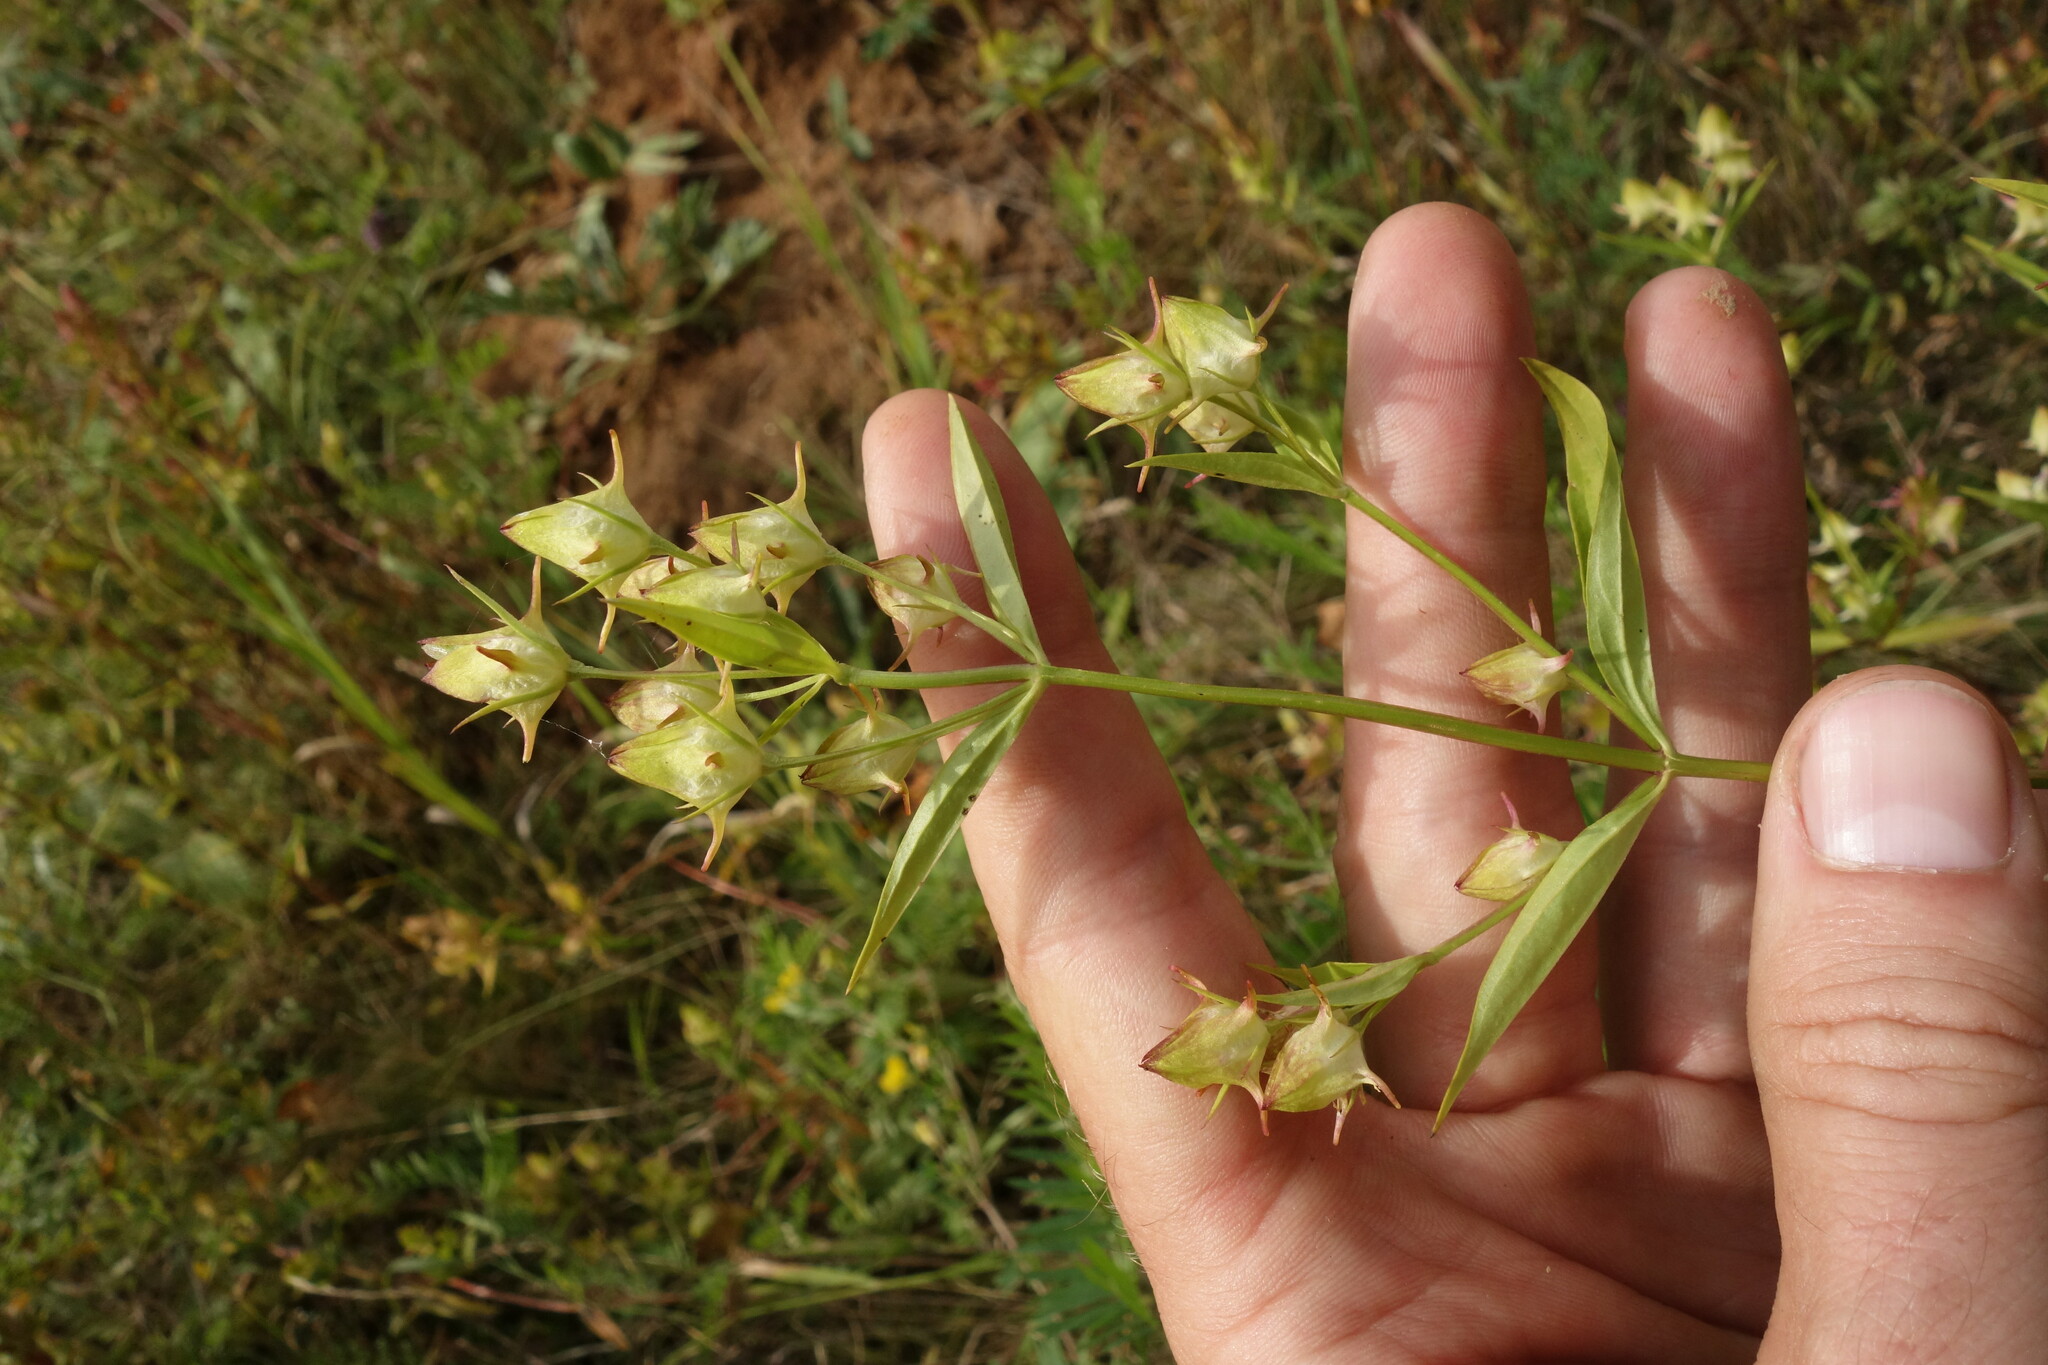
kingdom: Plantae
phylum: Tracheophyta
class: Magnoliopsida
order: Gentianales
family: Gentianaceae
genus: Halenia
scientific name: Halenia corniculata
